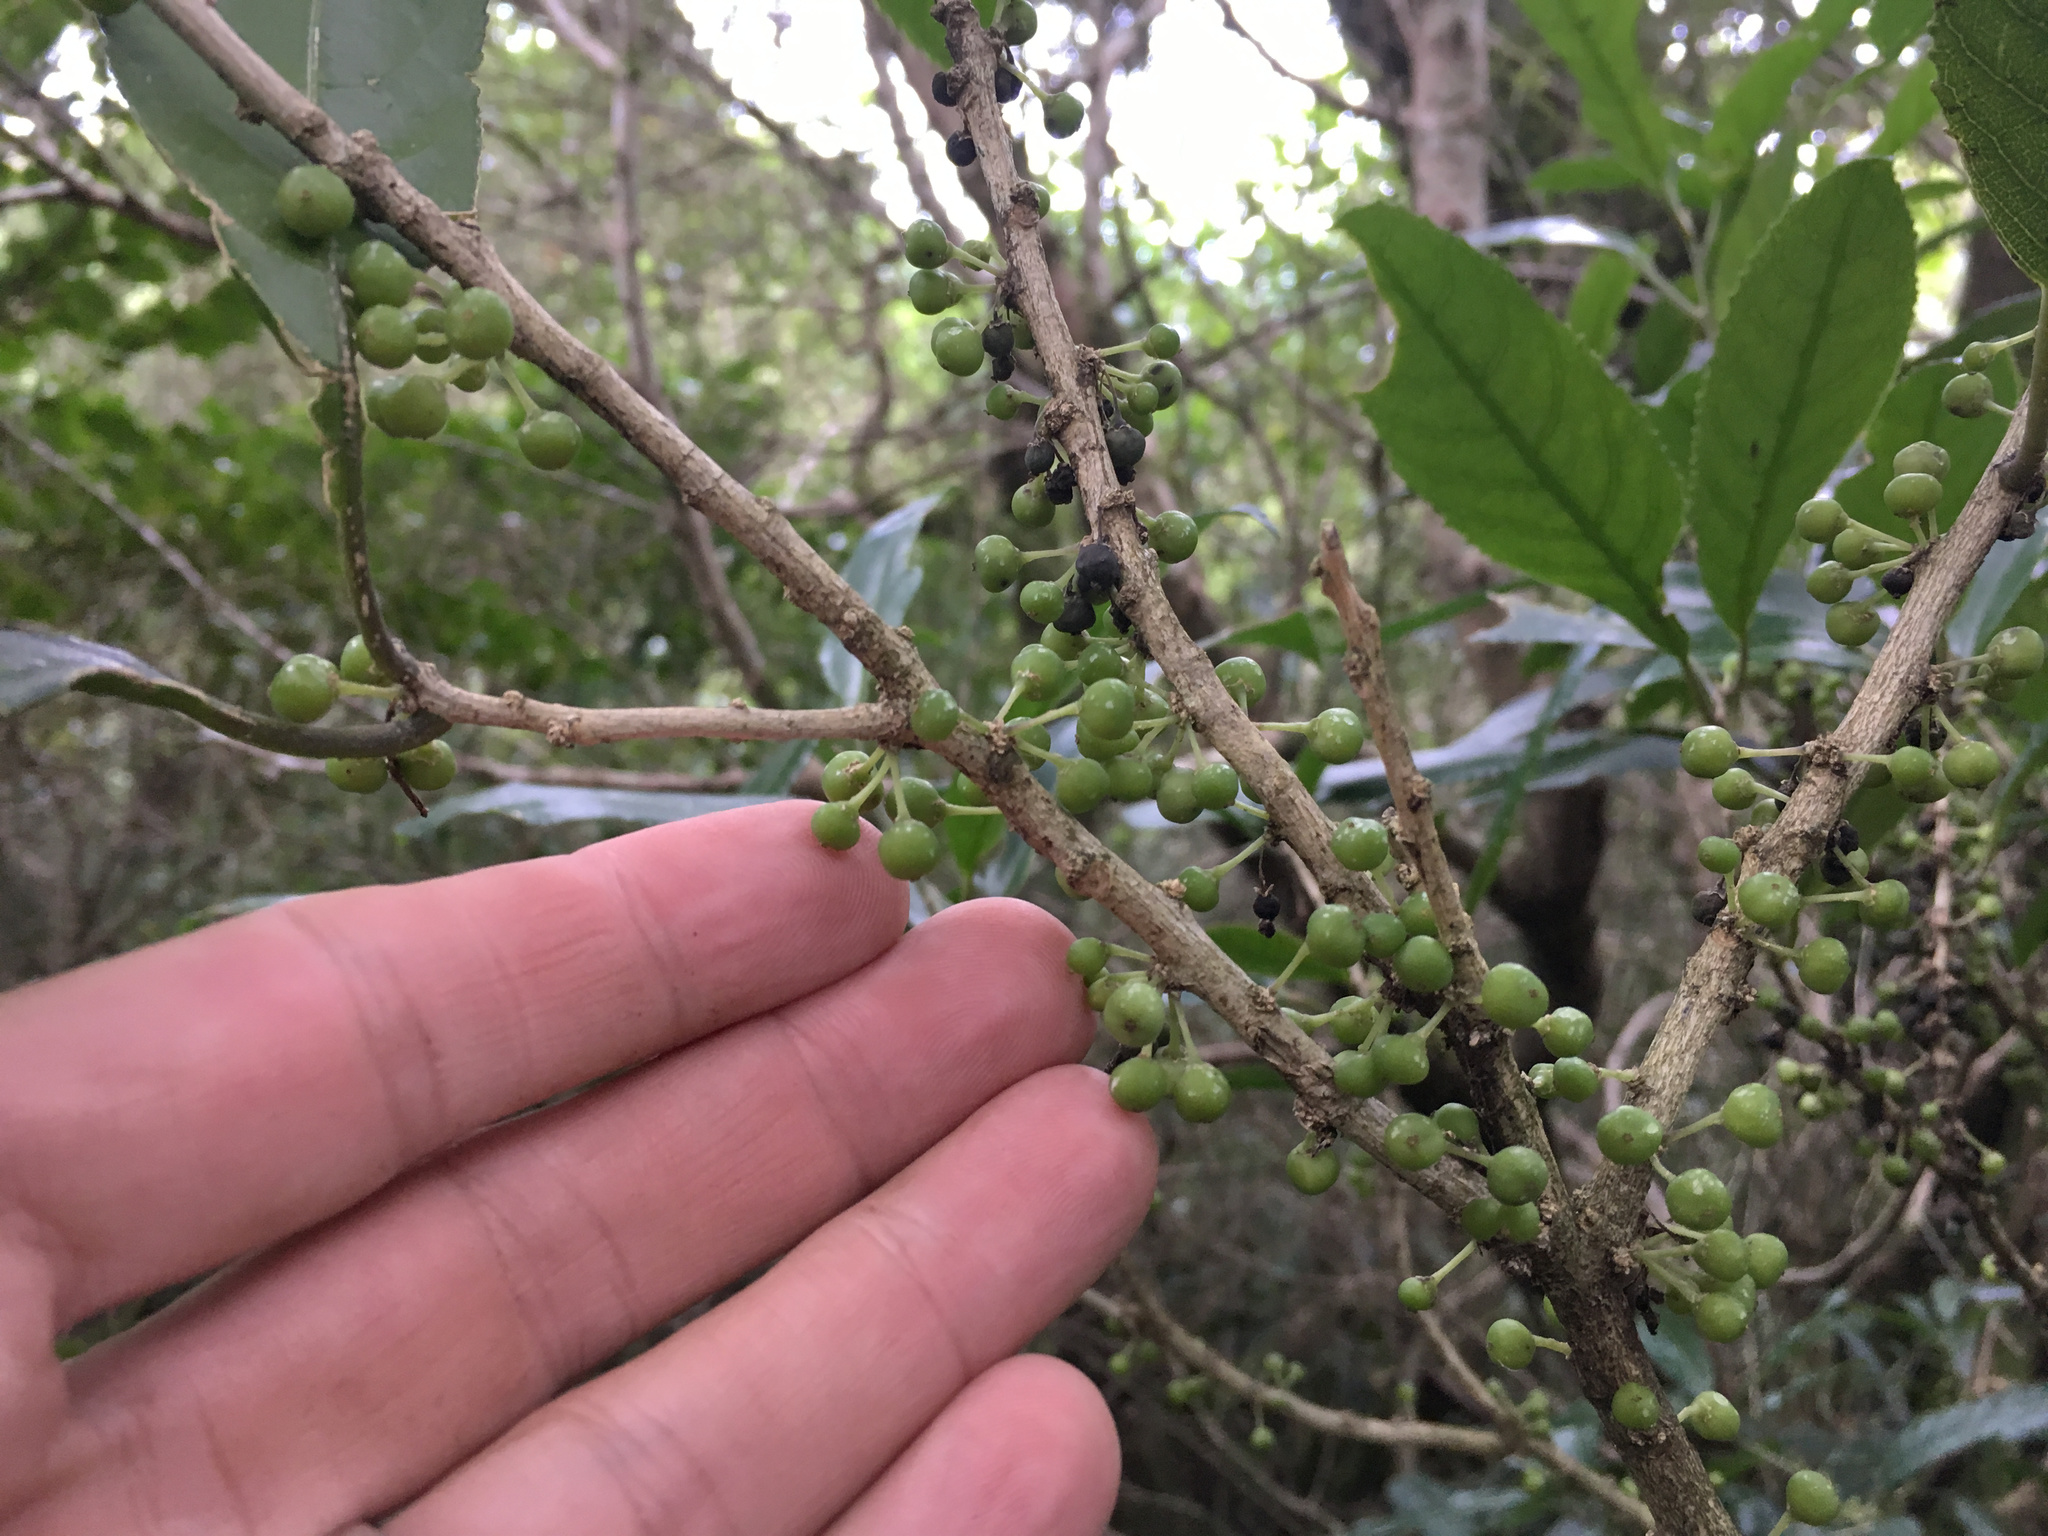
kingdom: Plantae
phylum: Tracheophyta
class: Magnoliopsida
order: Malpighiales
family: Violaceae
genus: Melicytus
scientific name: Melicytus ramiflorus
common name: Mahoe
